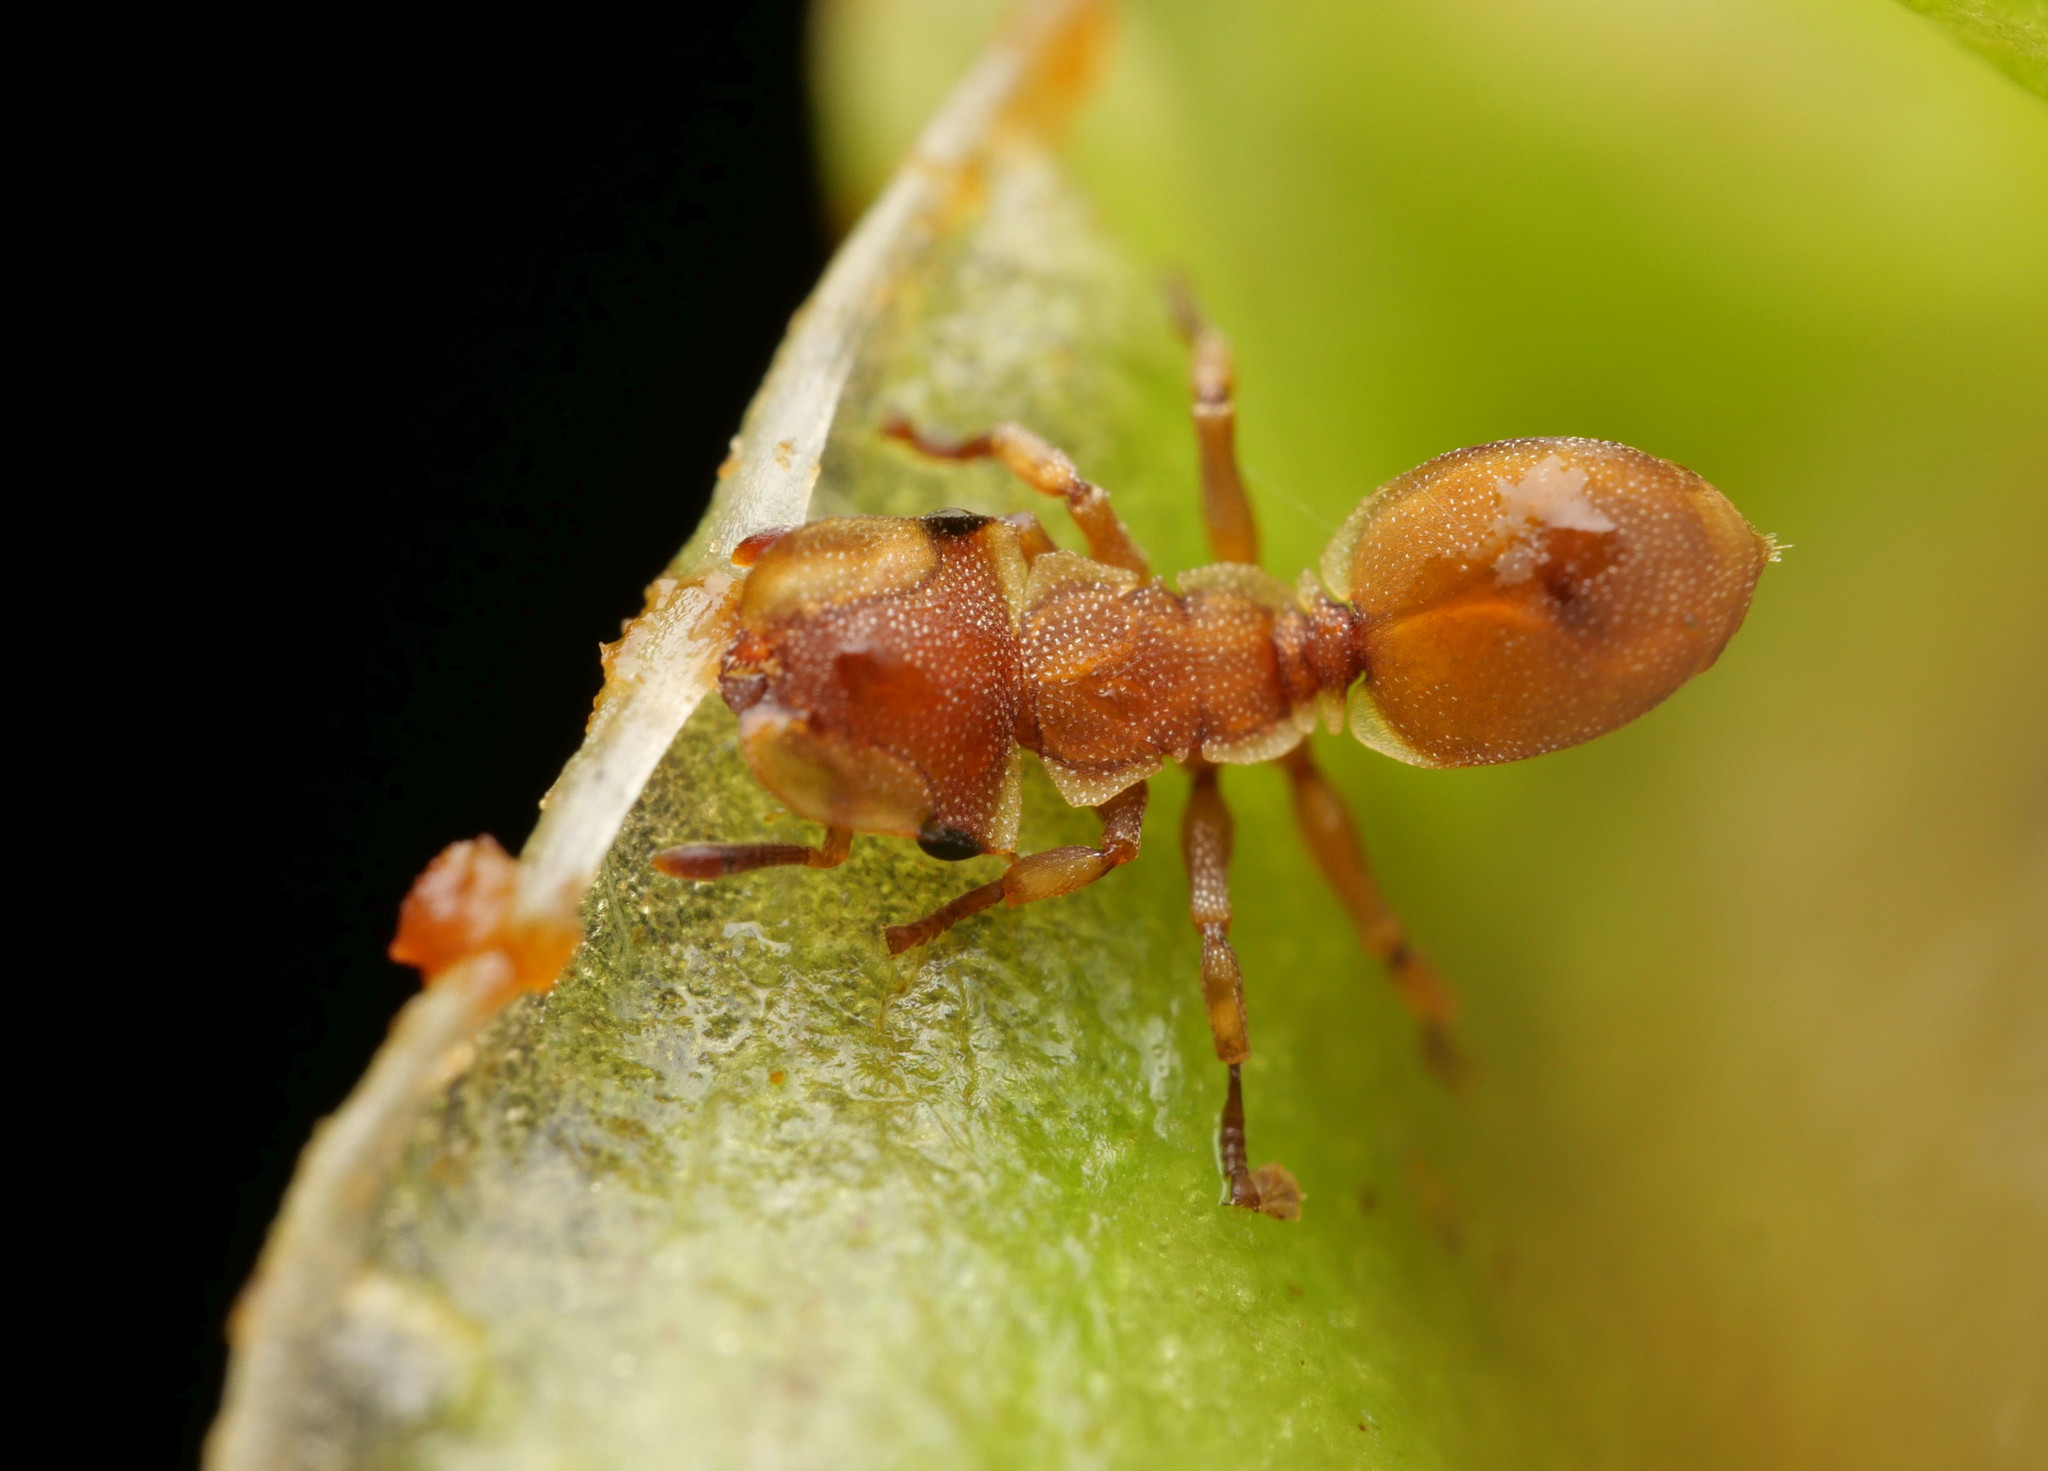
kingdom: Animalia
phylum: Arthropoda
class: Insecta
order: Hymenoptera
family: Formicidae
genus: Cephalotes
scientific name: Cephalotes grandinosus
